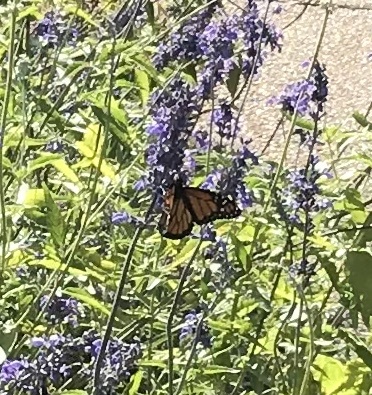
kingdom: Animalia
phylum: Arthropoda
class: Insecta
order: Lepidoptera
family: Nymphalidae
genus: Danaus
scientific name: Danaus plexippus
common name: Monarch
